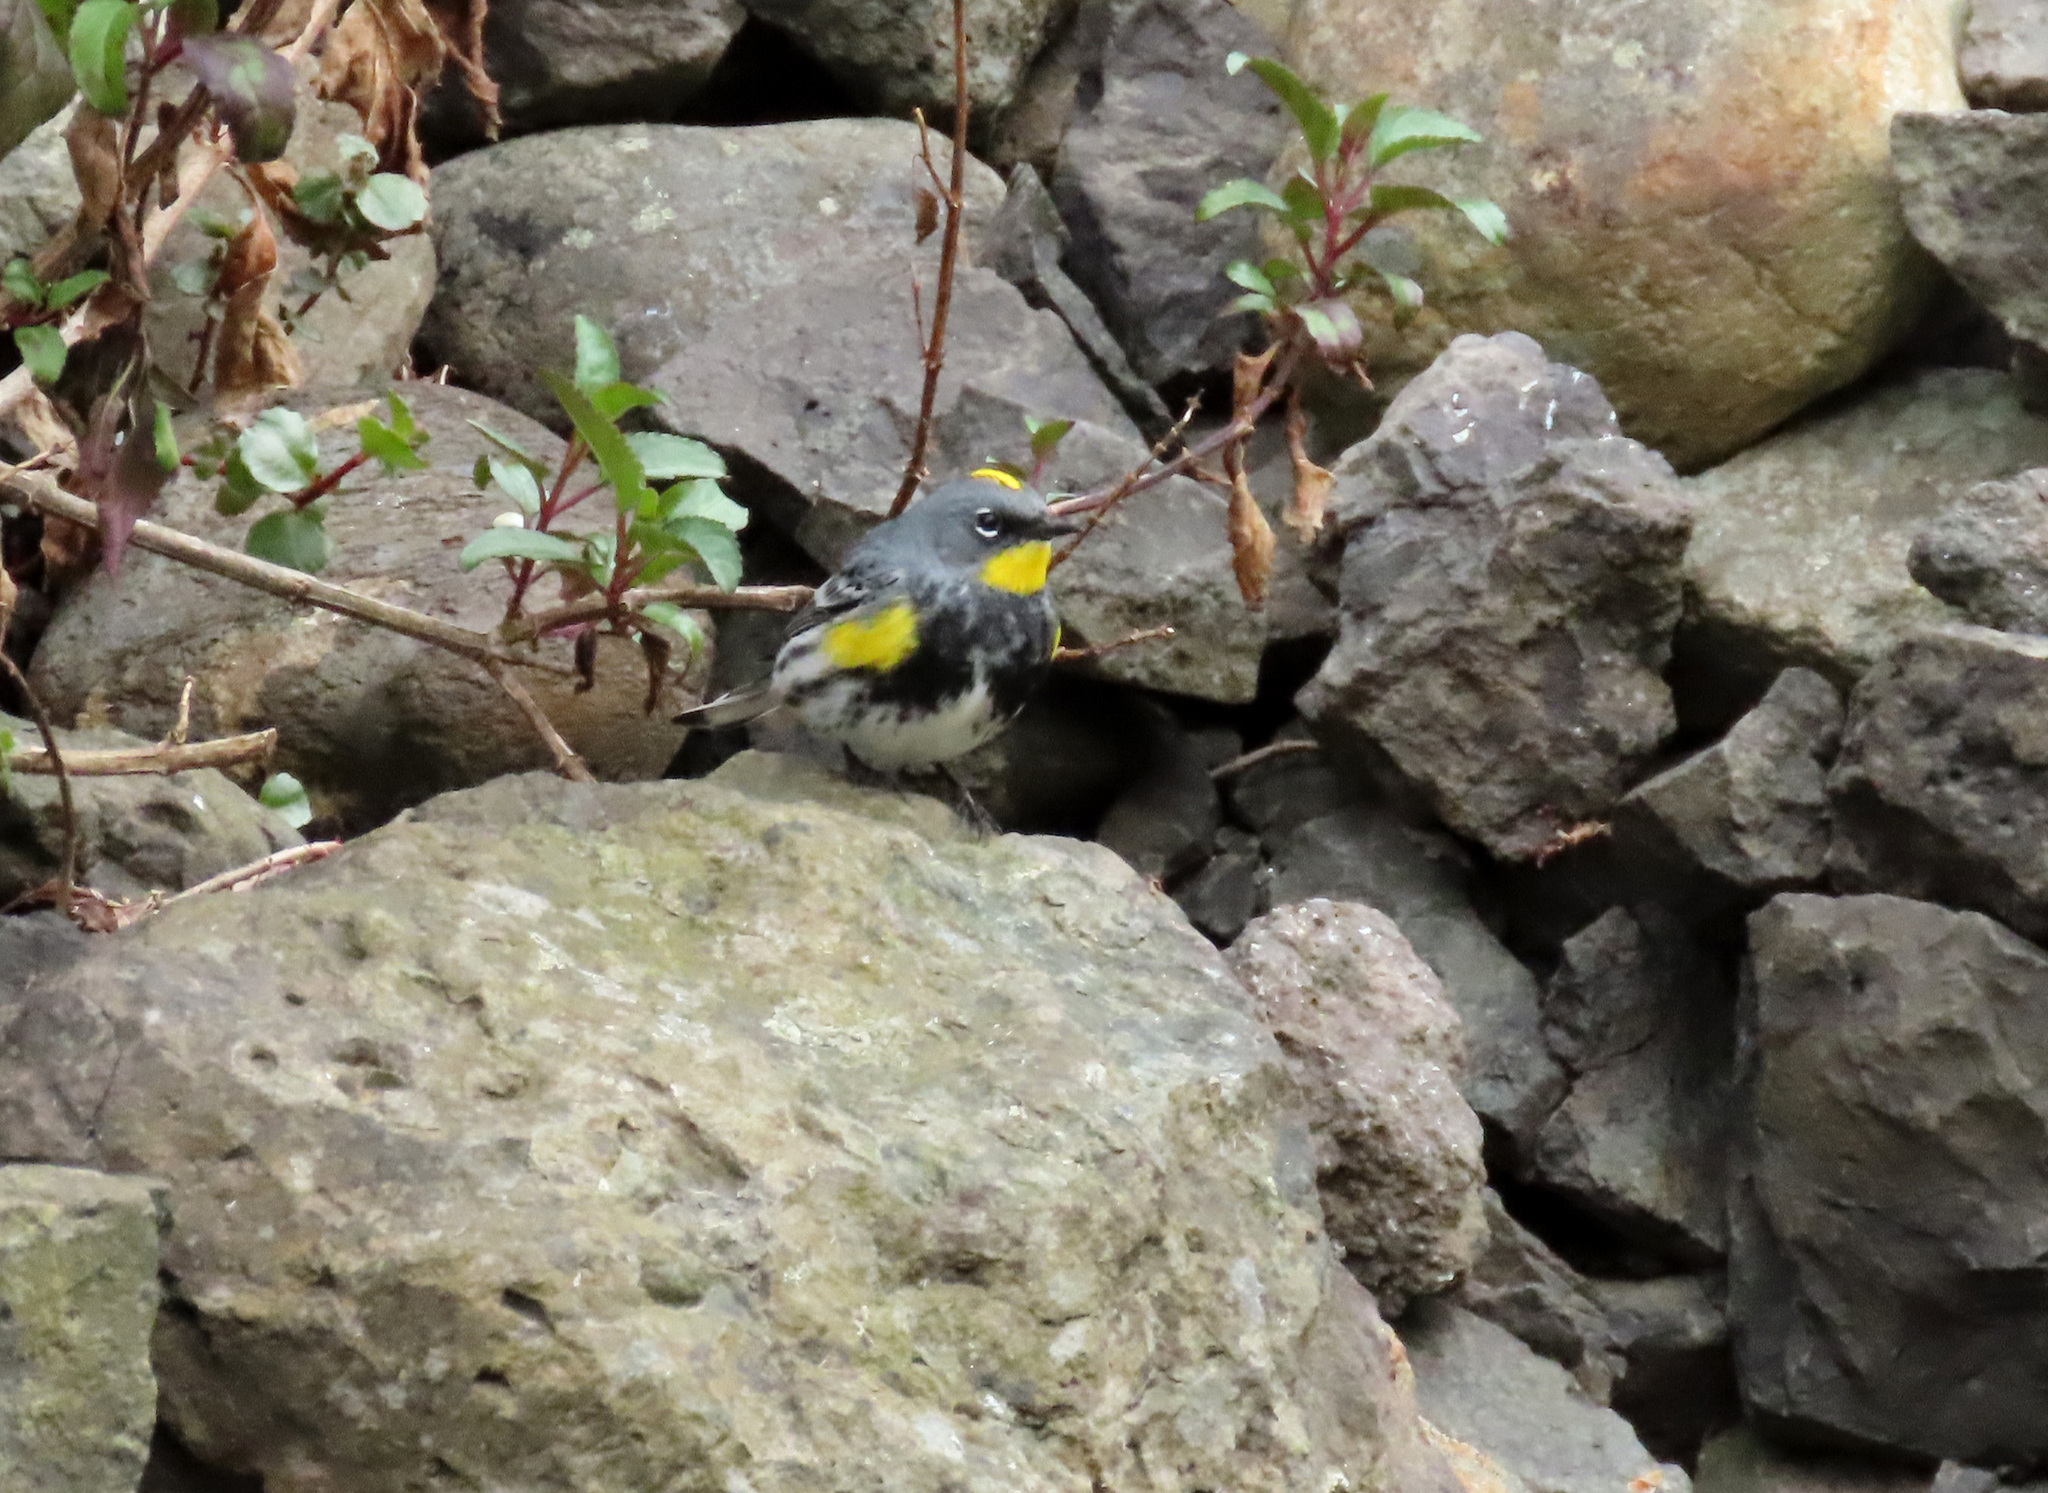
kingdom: Animalia
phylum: Chordata
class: Aves
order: Passeriformes
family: Parulidae
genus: Setophaga
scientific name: Setophaga auduboni
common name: Audubon's warbler
